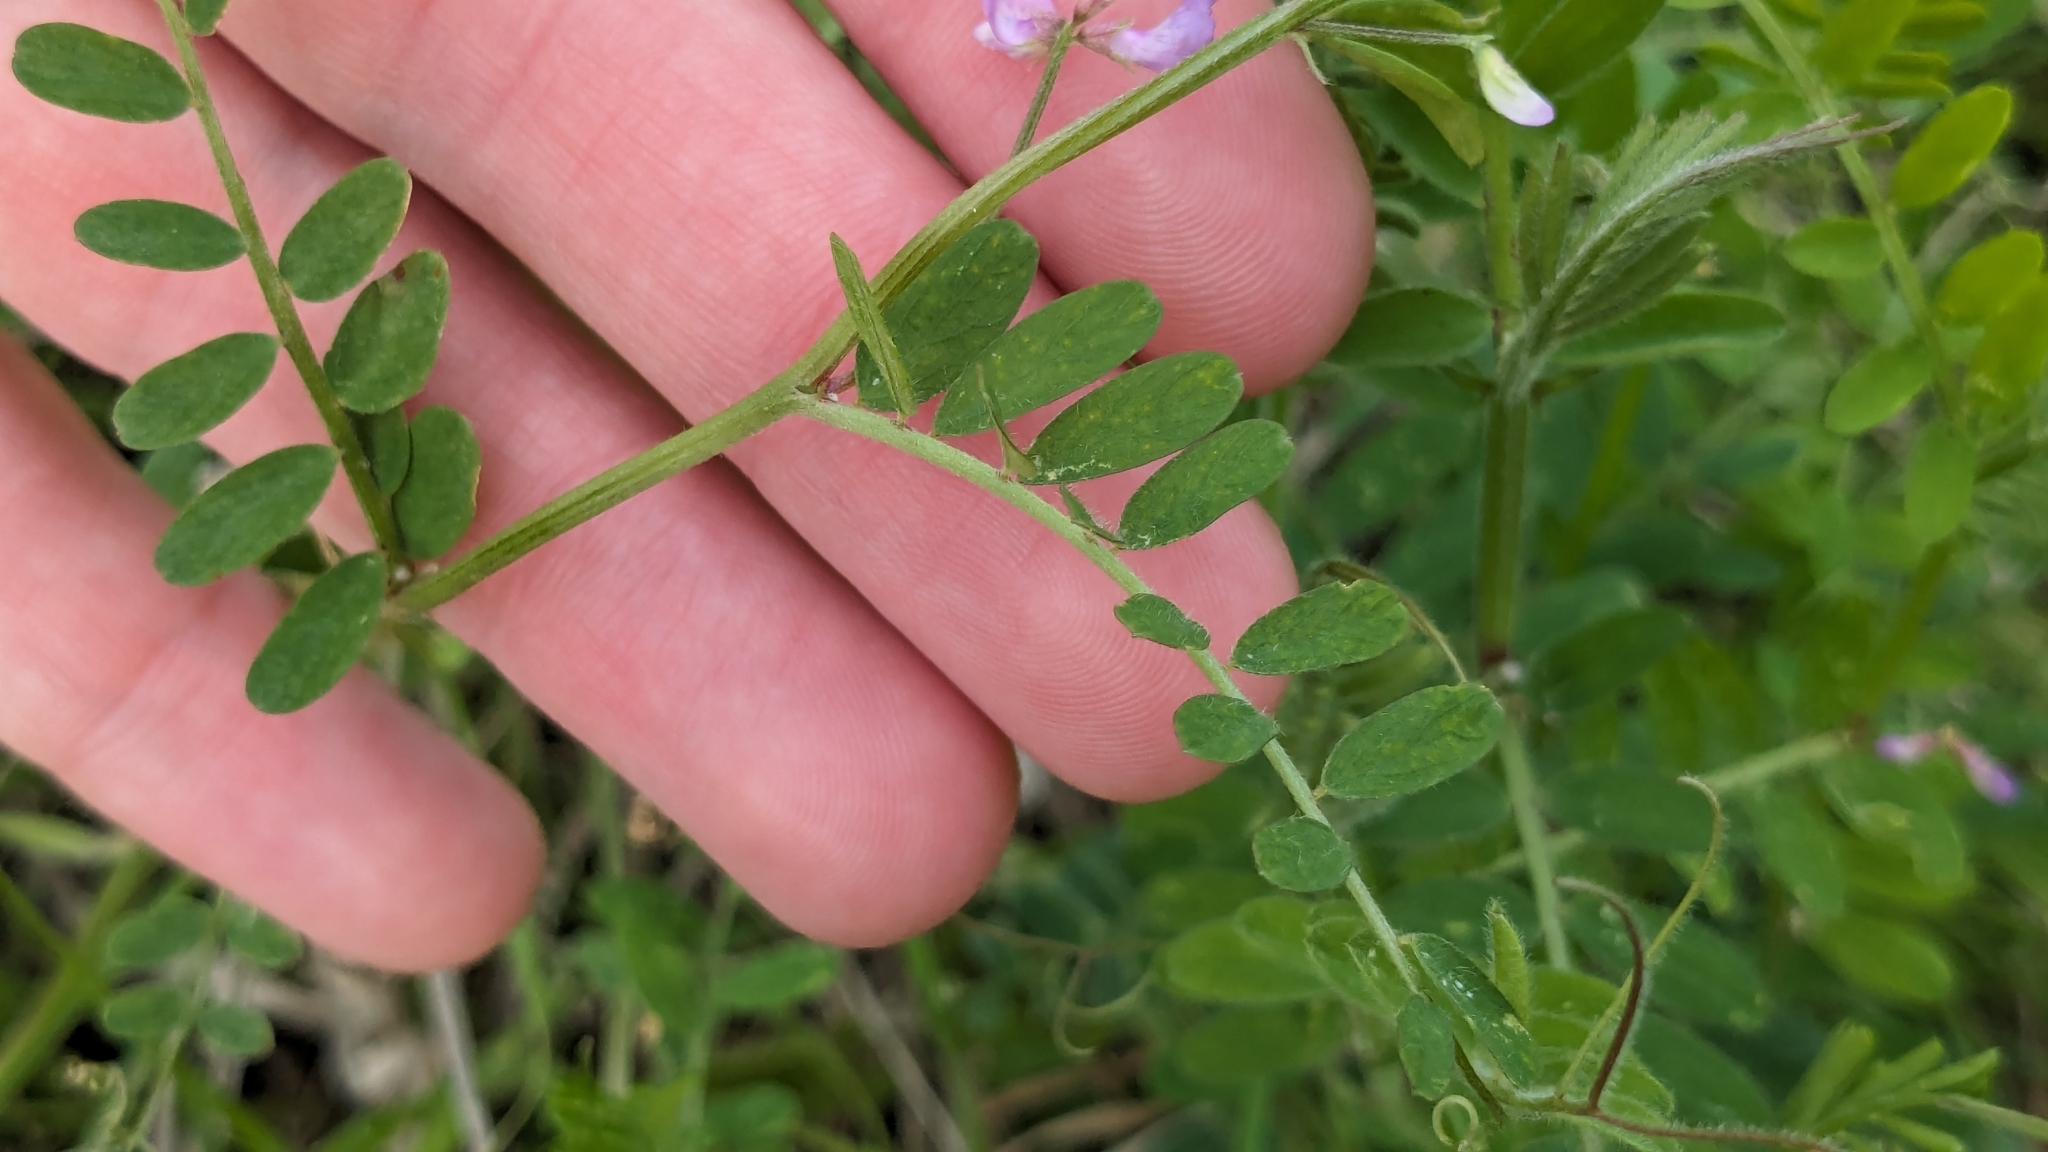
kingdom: Plantae
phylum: Tracheophyta
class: Magnoliopsida
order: Fabales
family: Fabaceae
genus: Vicia
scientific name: Vicia ludoviciana
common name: Louisiana vetch
